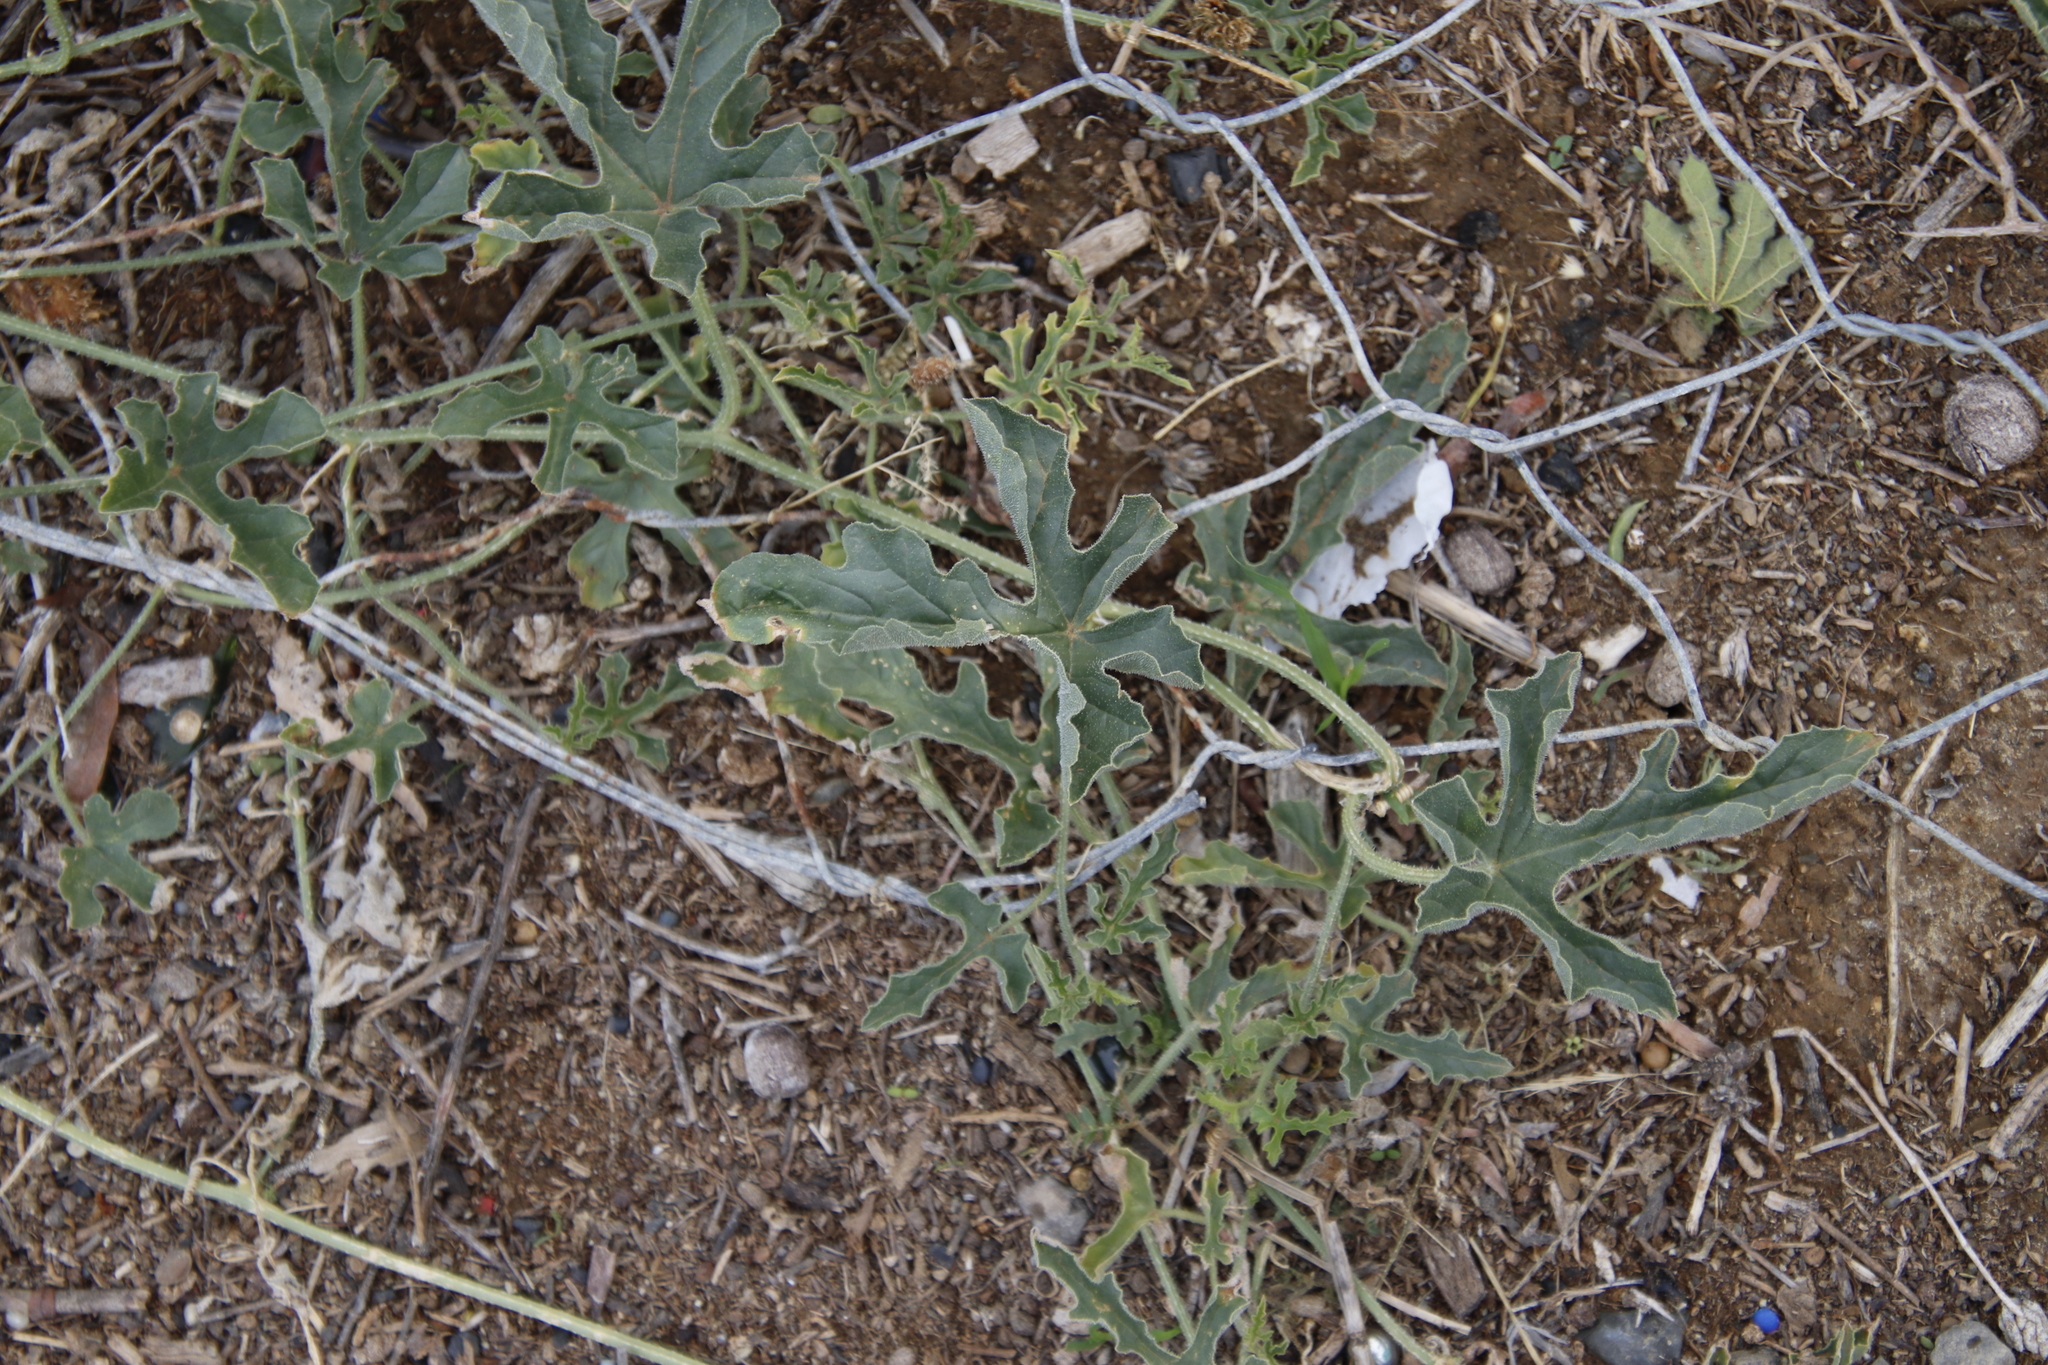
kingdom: Plantae
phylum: Tracheophyta
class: Magnoliopsida
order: Cucurbitales
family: Cucurbitaceae
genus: Cucumis
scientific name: Cucumis africanus
